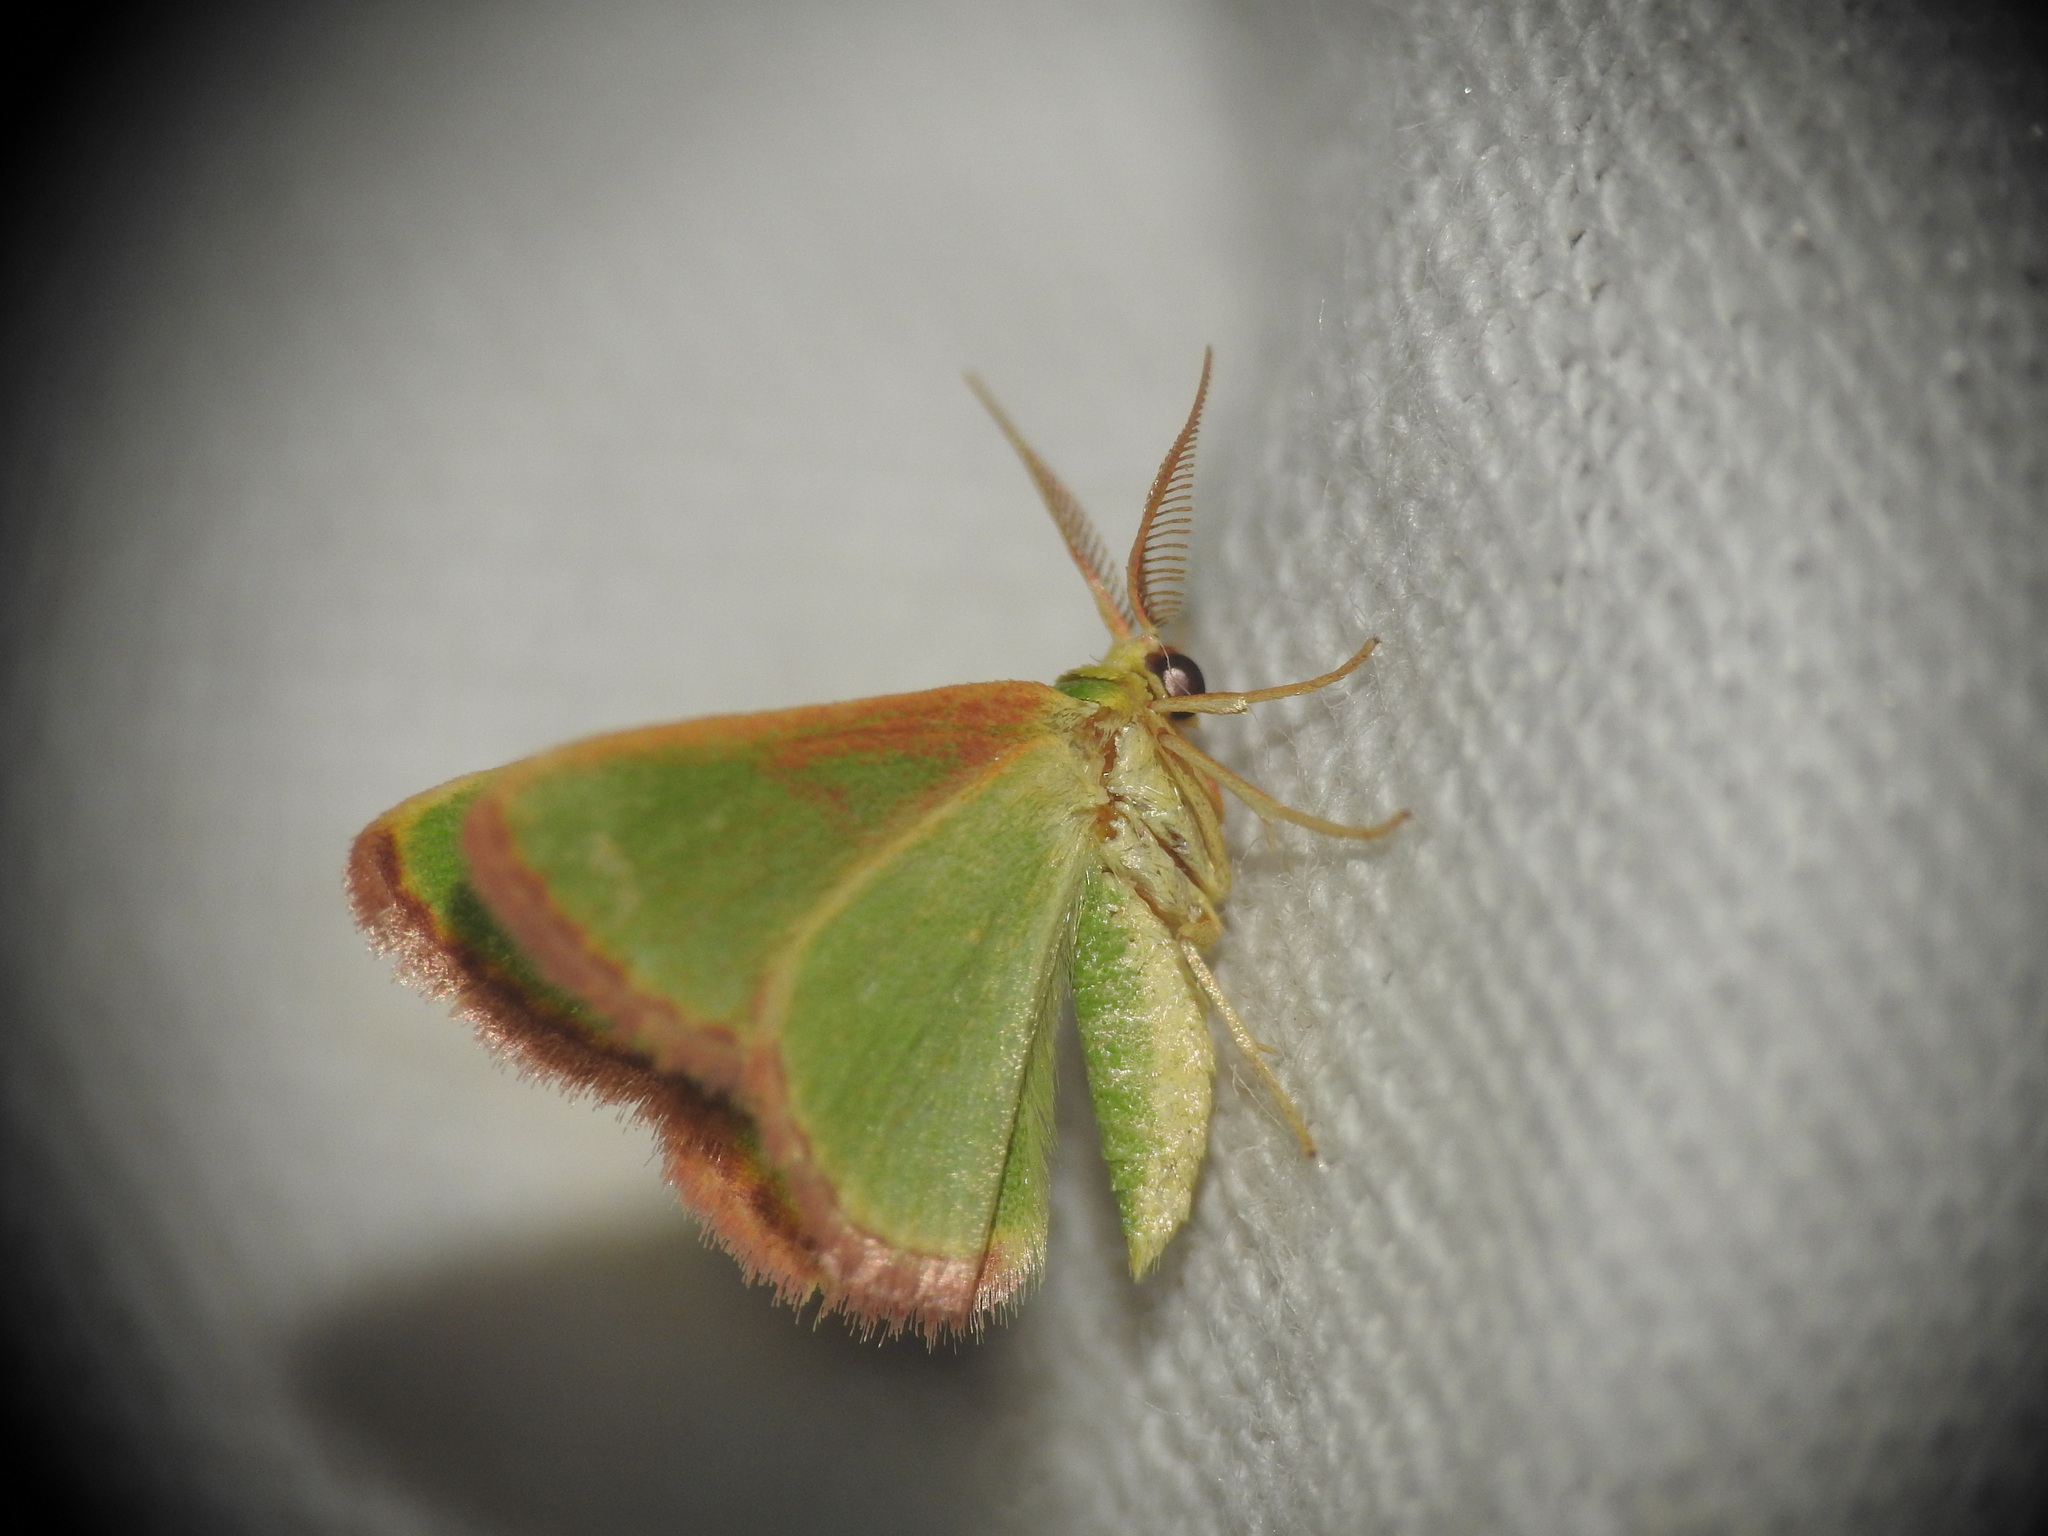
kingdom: Animalia
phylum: Arthropoda
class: Insecta
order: Lepidoptera
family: Geometridae
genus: Eucrostes
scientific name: Eucrostes indigenata
